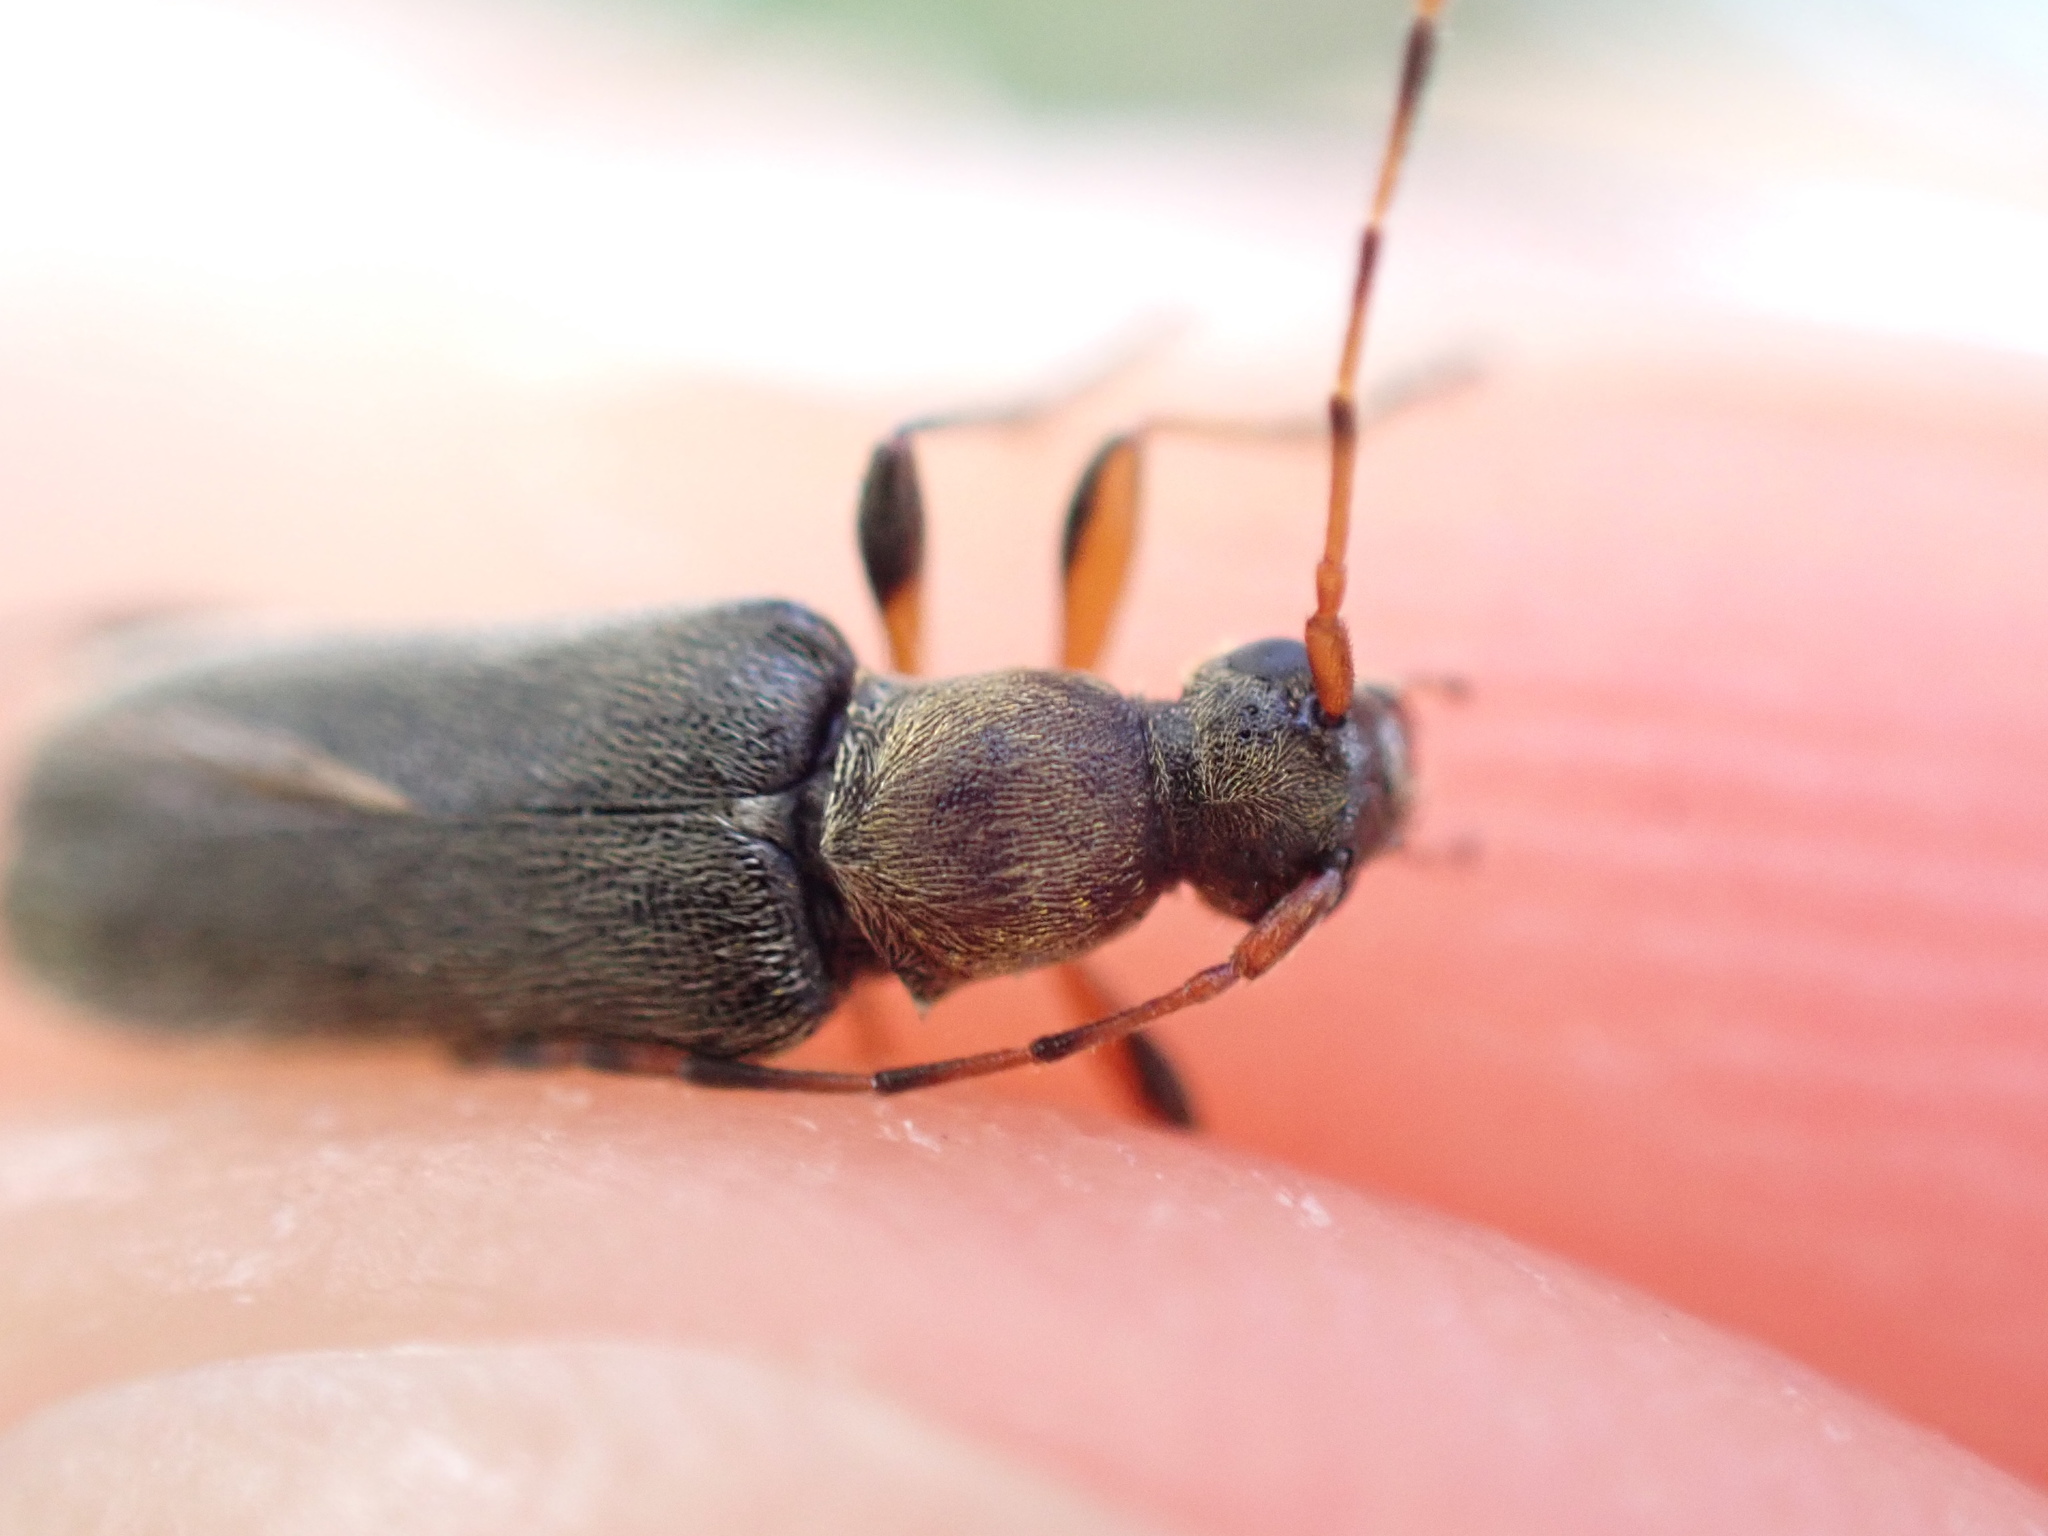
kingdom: Animalia
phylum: Arthropoda
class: Insecta
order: Coleoptera
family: Cerambycidae
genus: Grammoptera
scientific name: Grammoptera ruficornis
